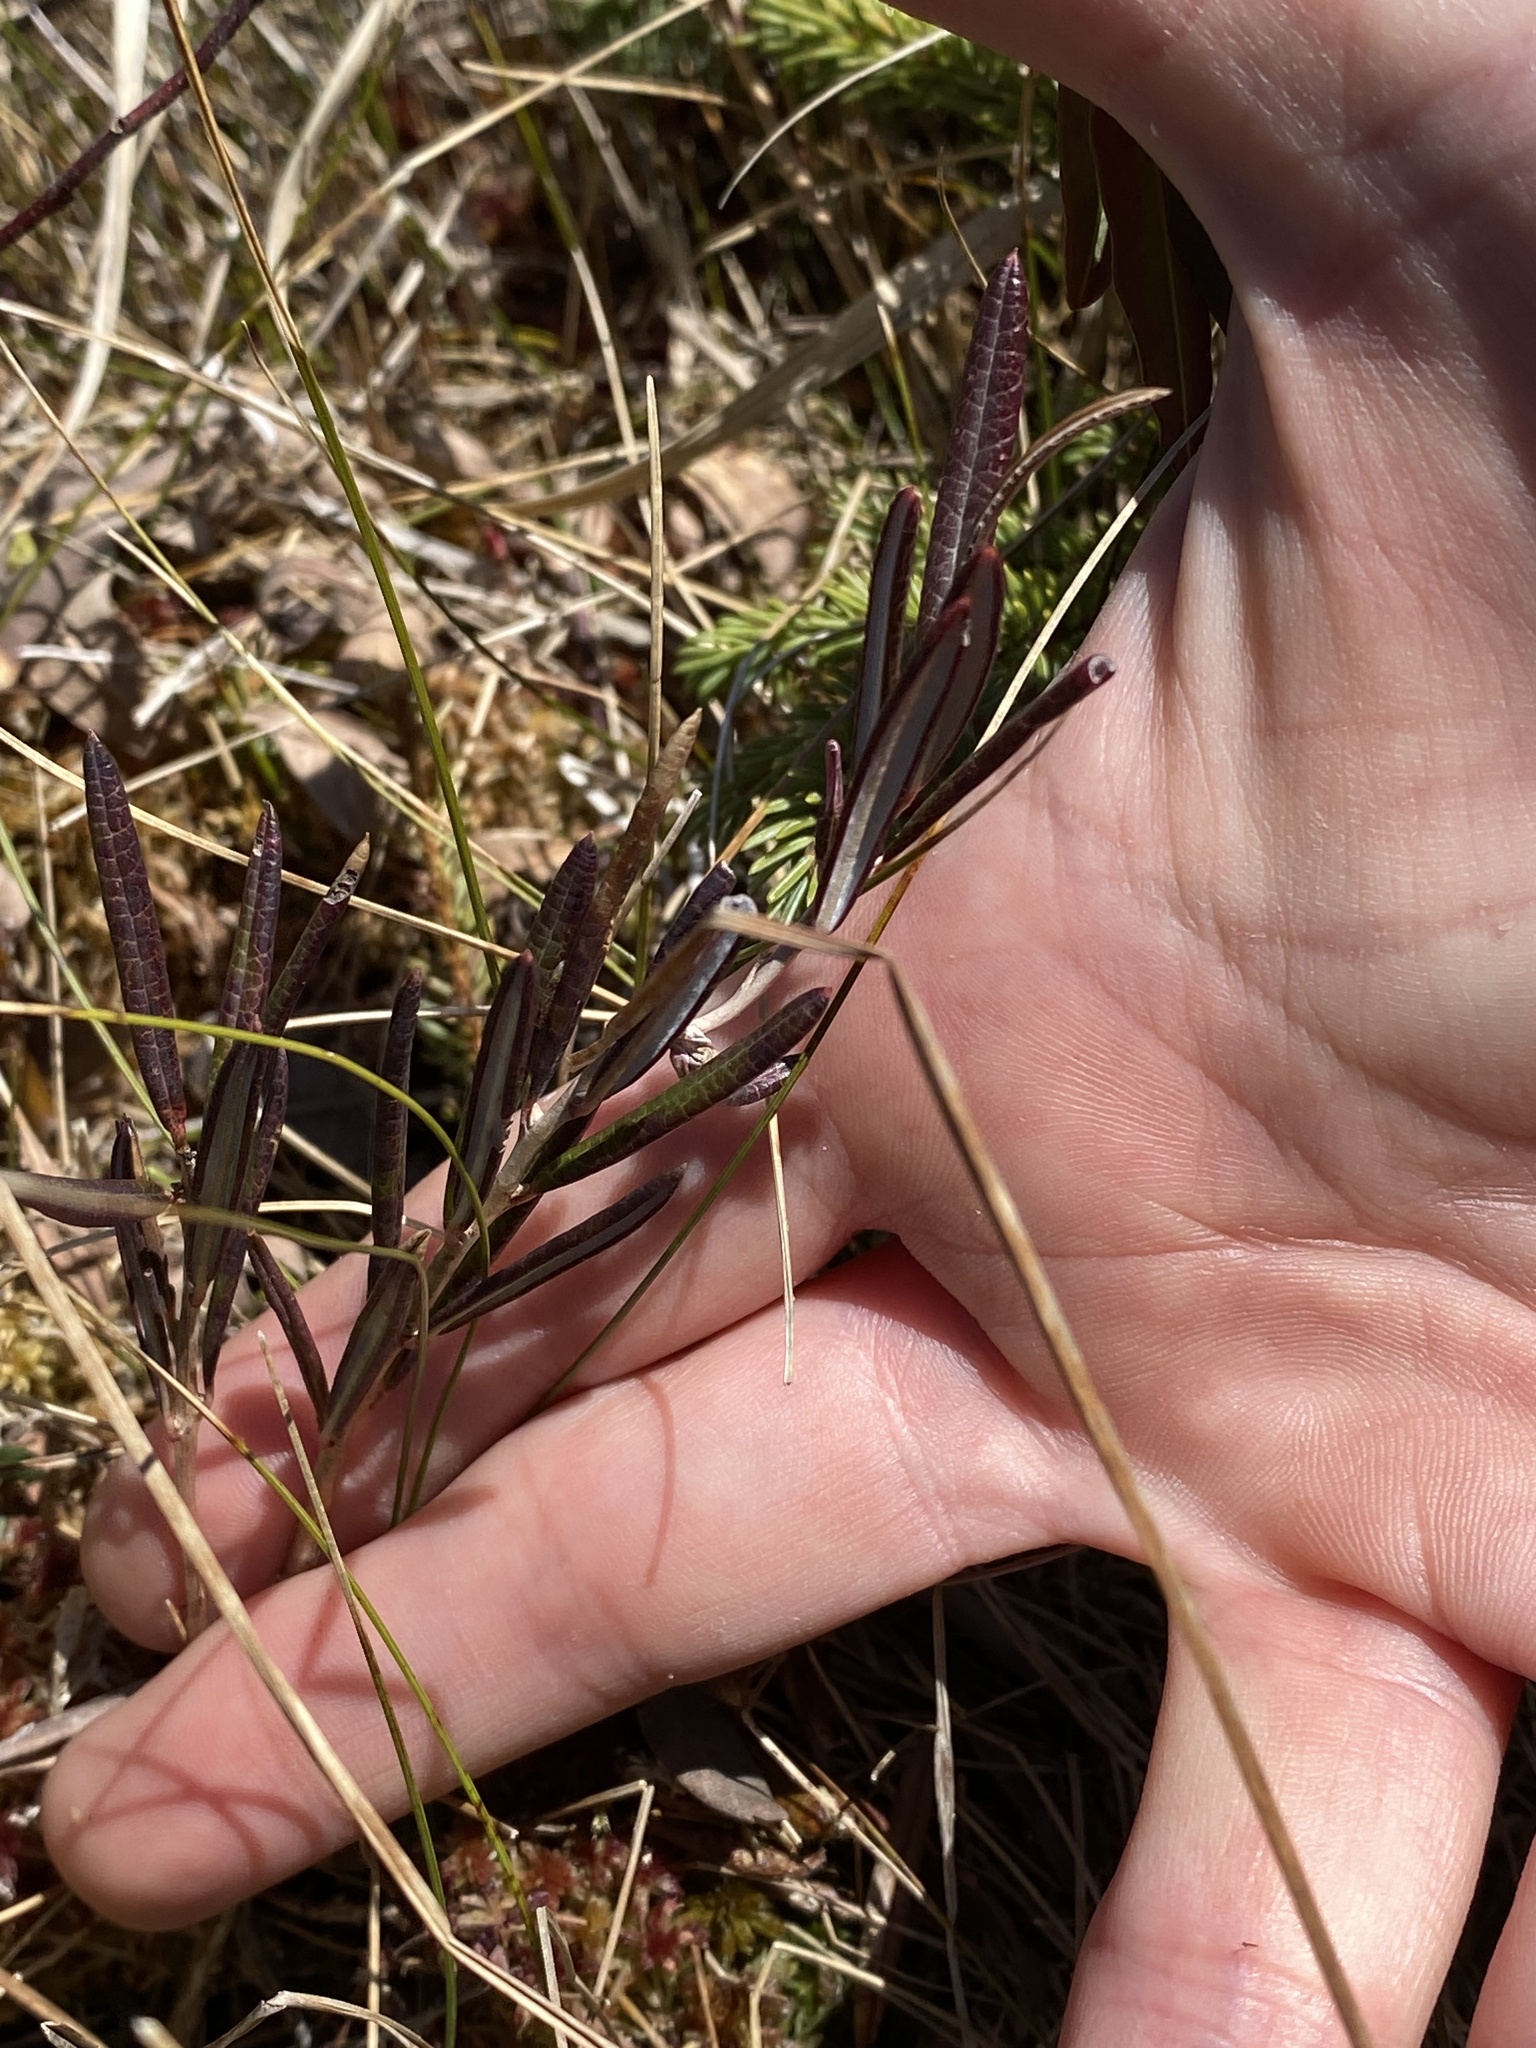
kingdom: Plantae
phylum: Tracheophyta
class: Magnoliopsida
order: Ericales
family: Ericaceae
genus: Andromeda
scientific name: Andromeda polifolia
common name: Bog-rosemary
